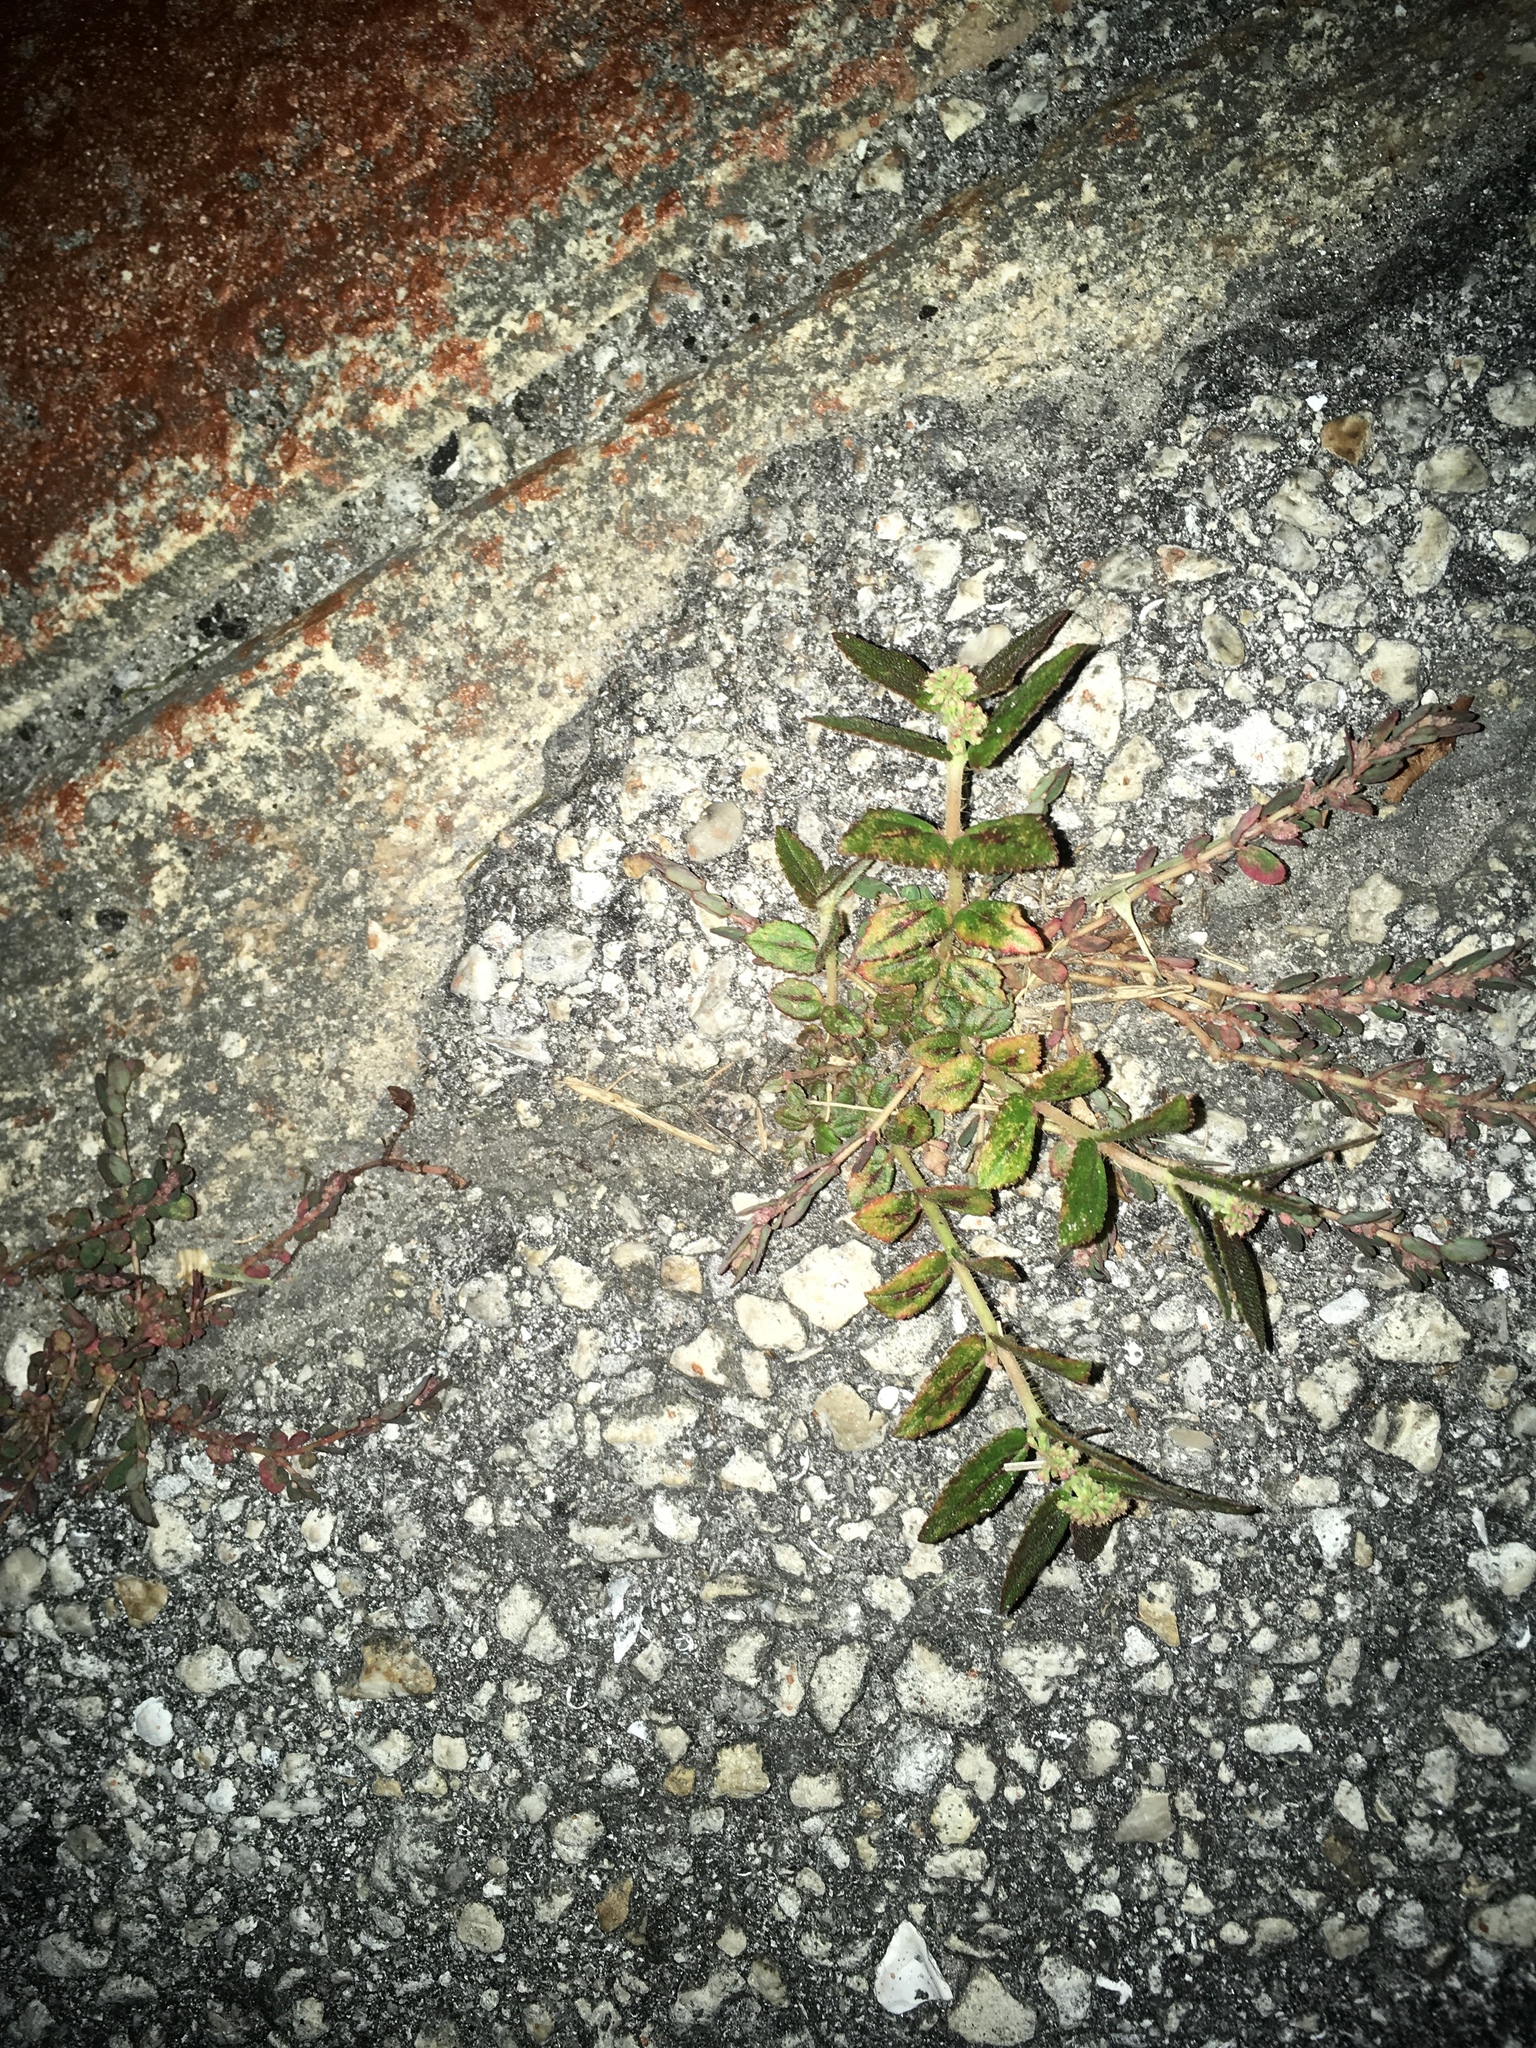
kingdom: Plantae
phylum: Tracheophyta
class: Magnoliopsida
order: Malpighiales
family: Euphorbiaceae
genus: Euphorbia
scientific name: Euphorbia hirta
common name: Pillpod sandmat
